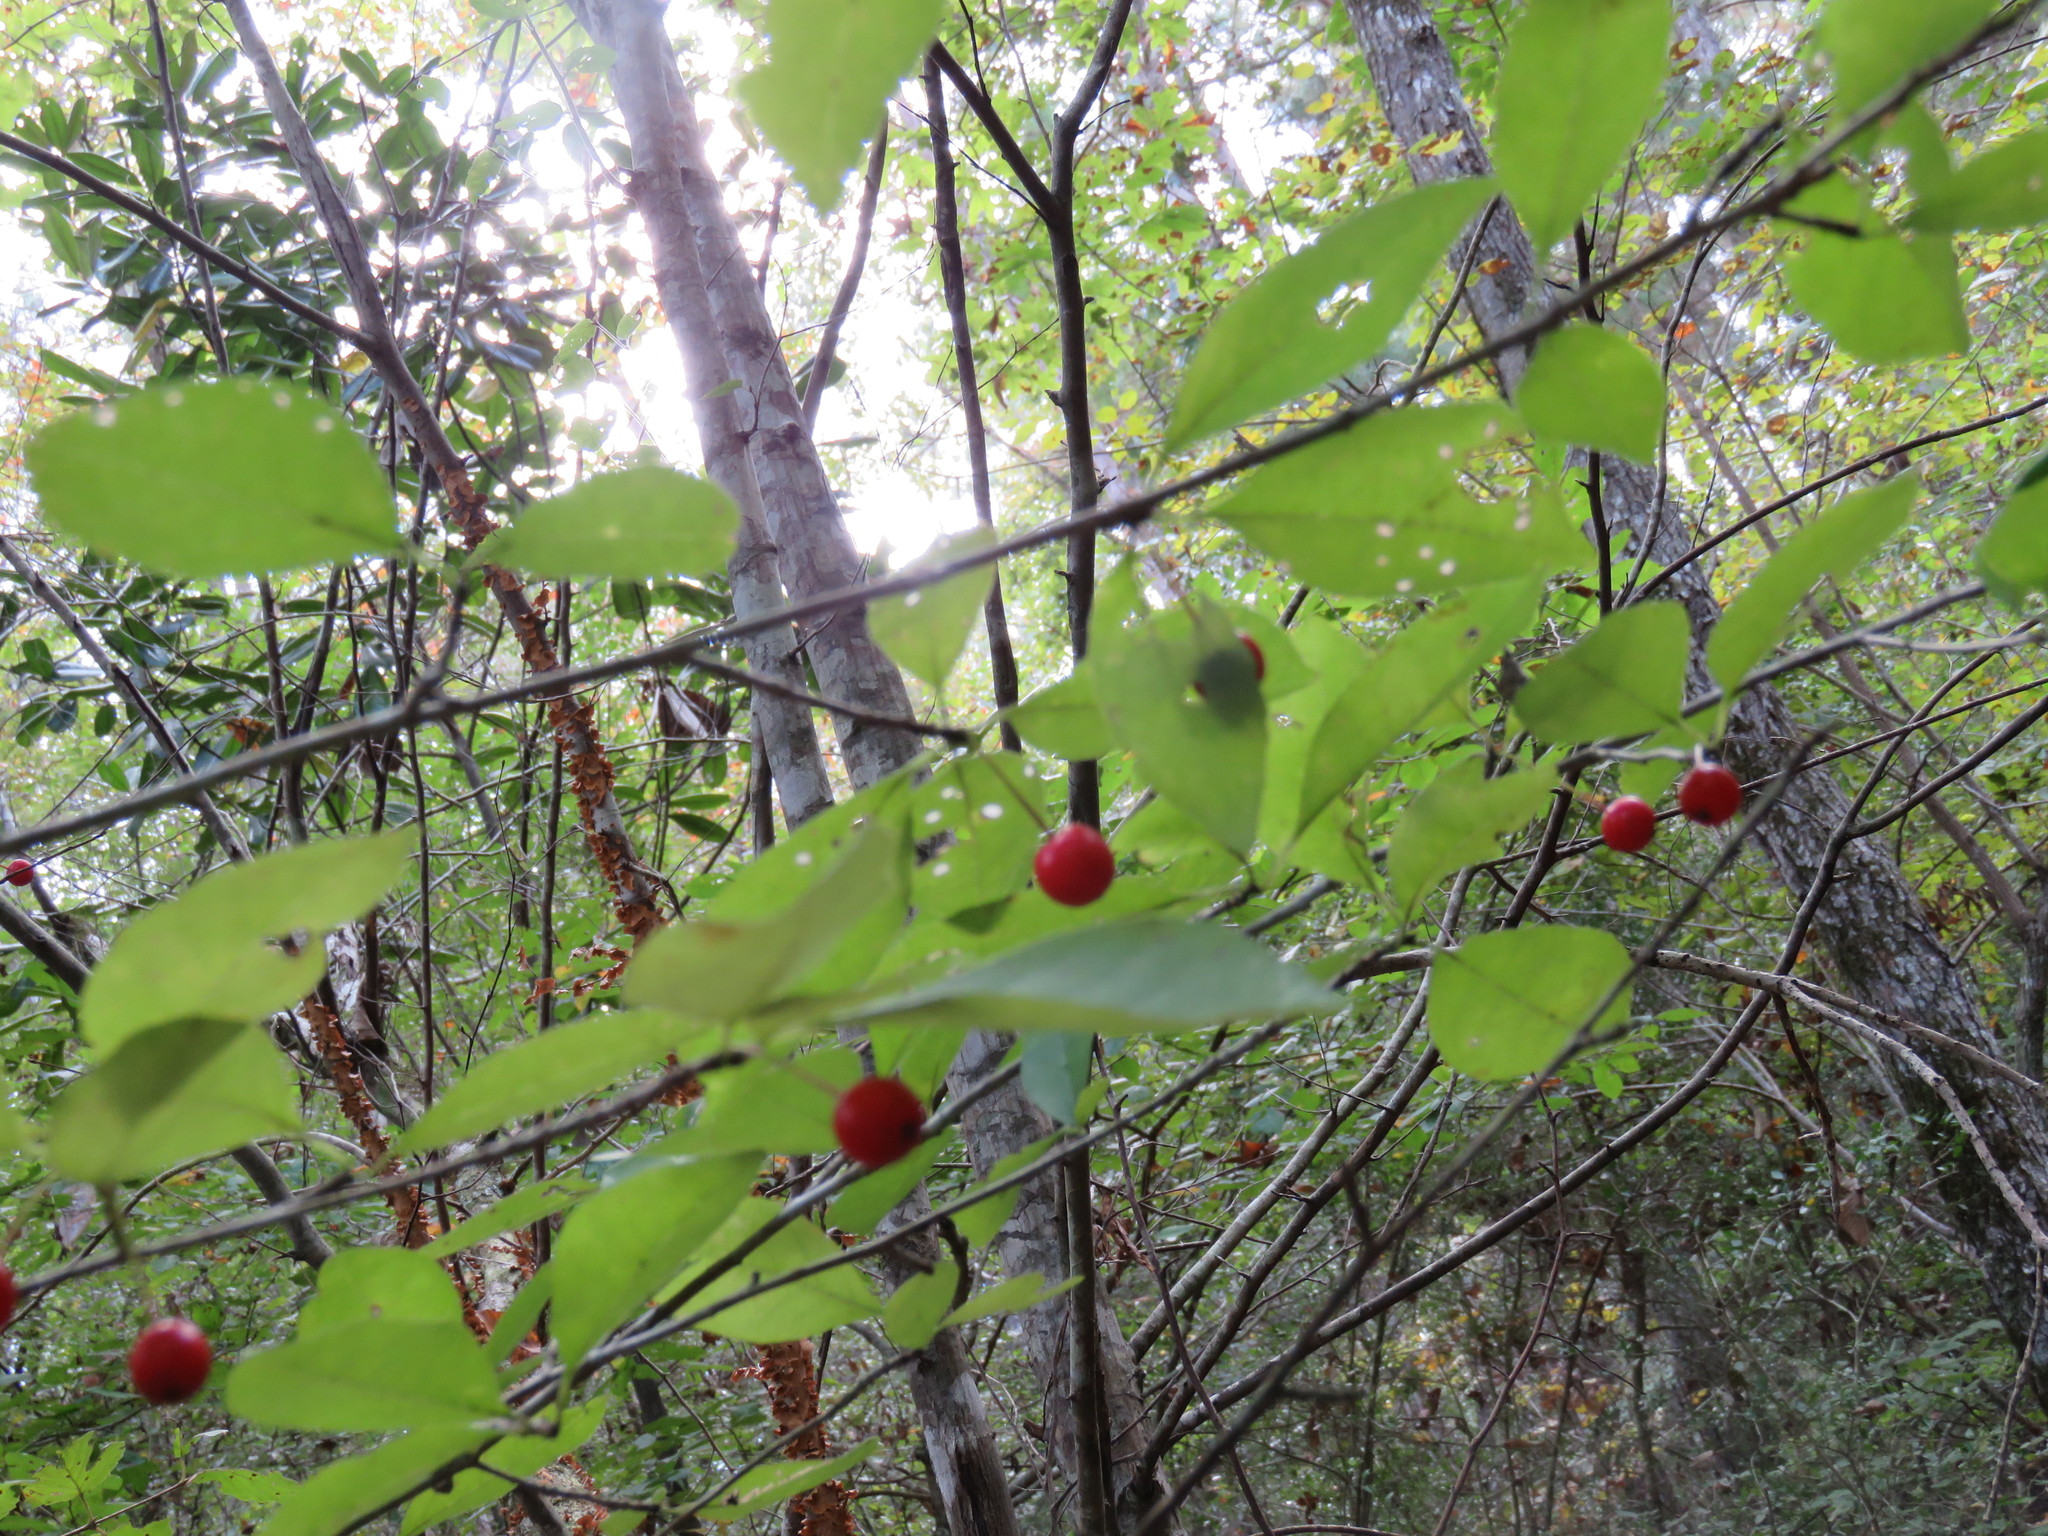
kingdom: Plantae
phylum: Tracheophyta
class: Magnoliopsida
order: Aquifoliales
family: Aquifoliaceae
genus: Ilex
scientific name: Ilex longipes
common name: Georgia holly
